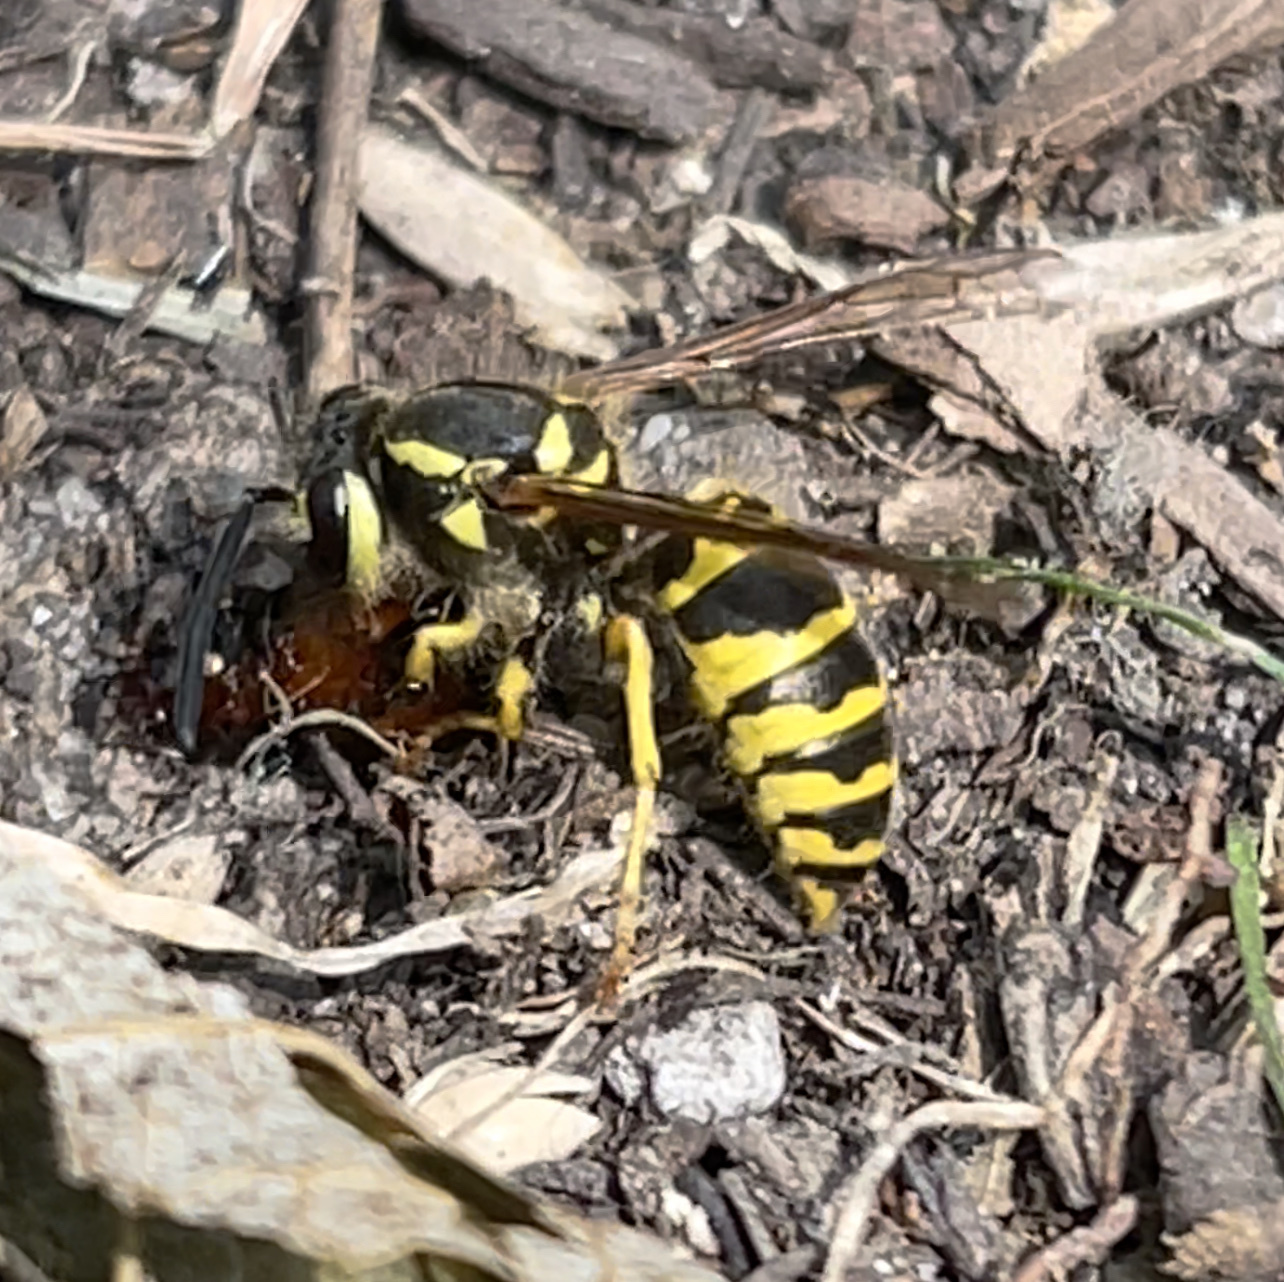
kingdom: Animalia
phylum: Arthropoda
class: Insecta
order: Hymenoptera
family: Vespidae
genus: Vespula
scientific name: Vespula maculifrons
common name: Eastern yellowjacket
